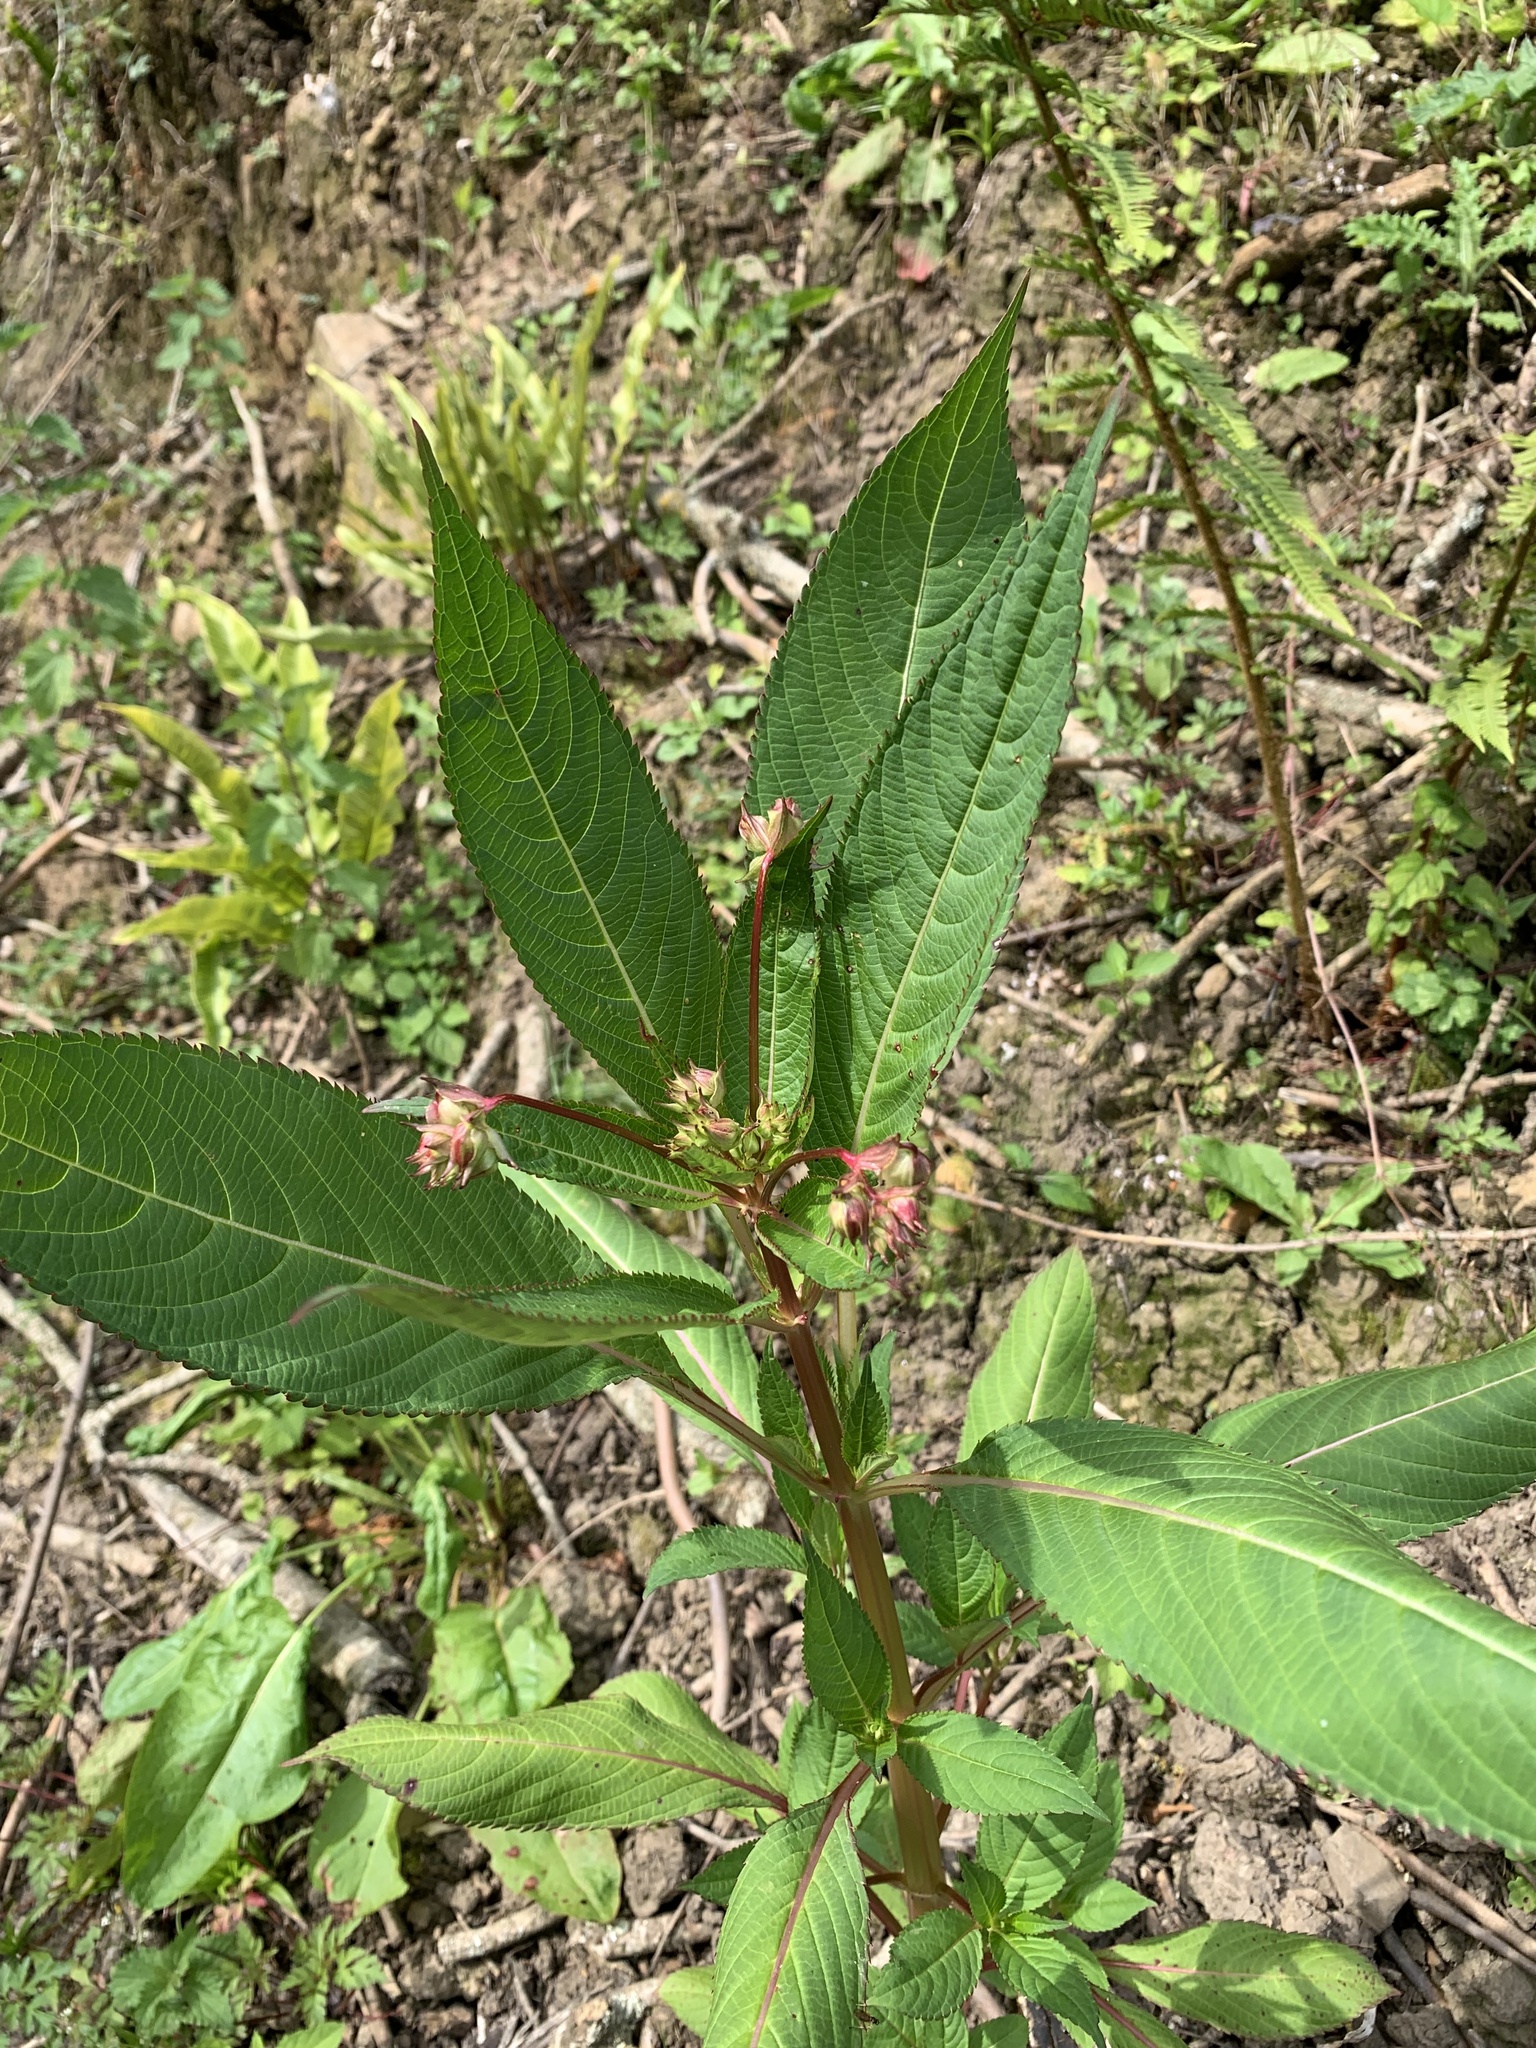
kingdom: Plantae
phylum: Tracheophyta
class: Magnoliopsida
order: Ericales
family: Balsaminaceae
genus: Impatiens
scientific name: Impatiens glandulifera
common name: Himalayan balsam
